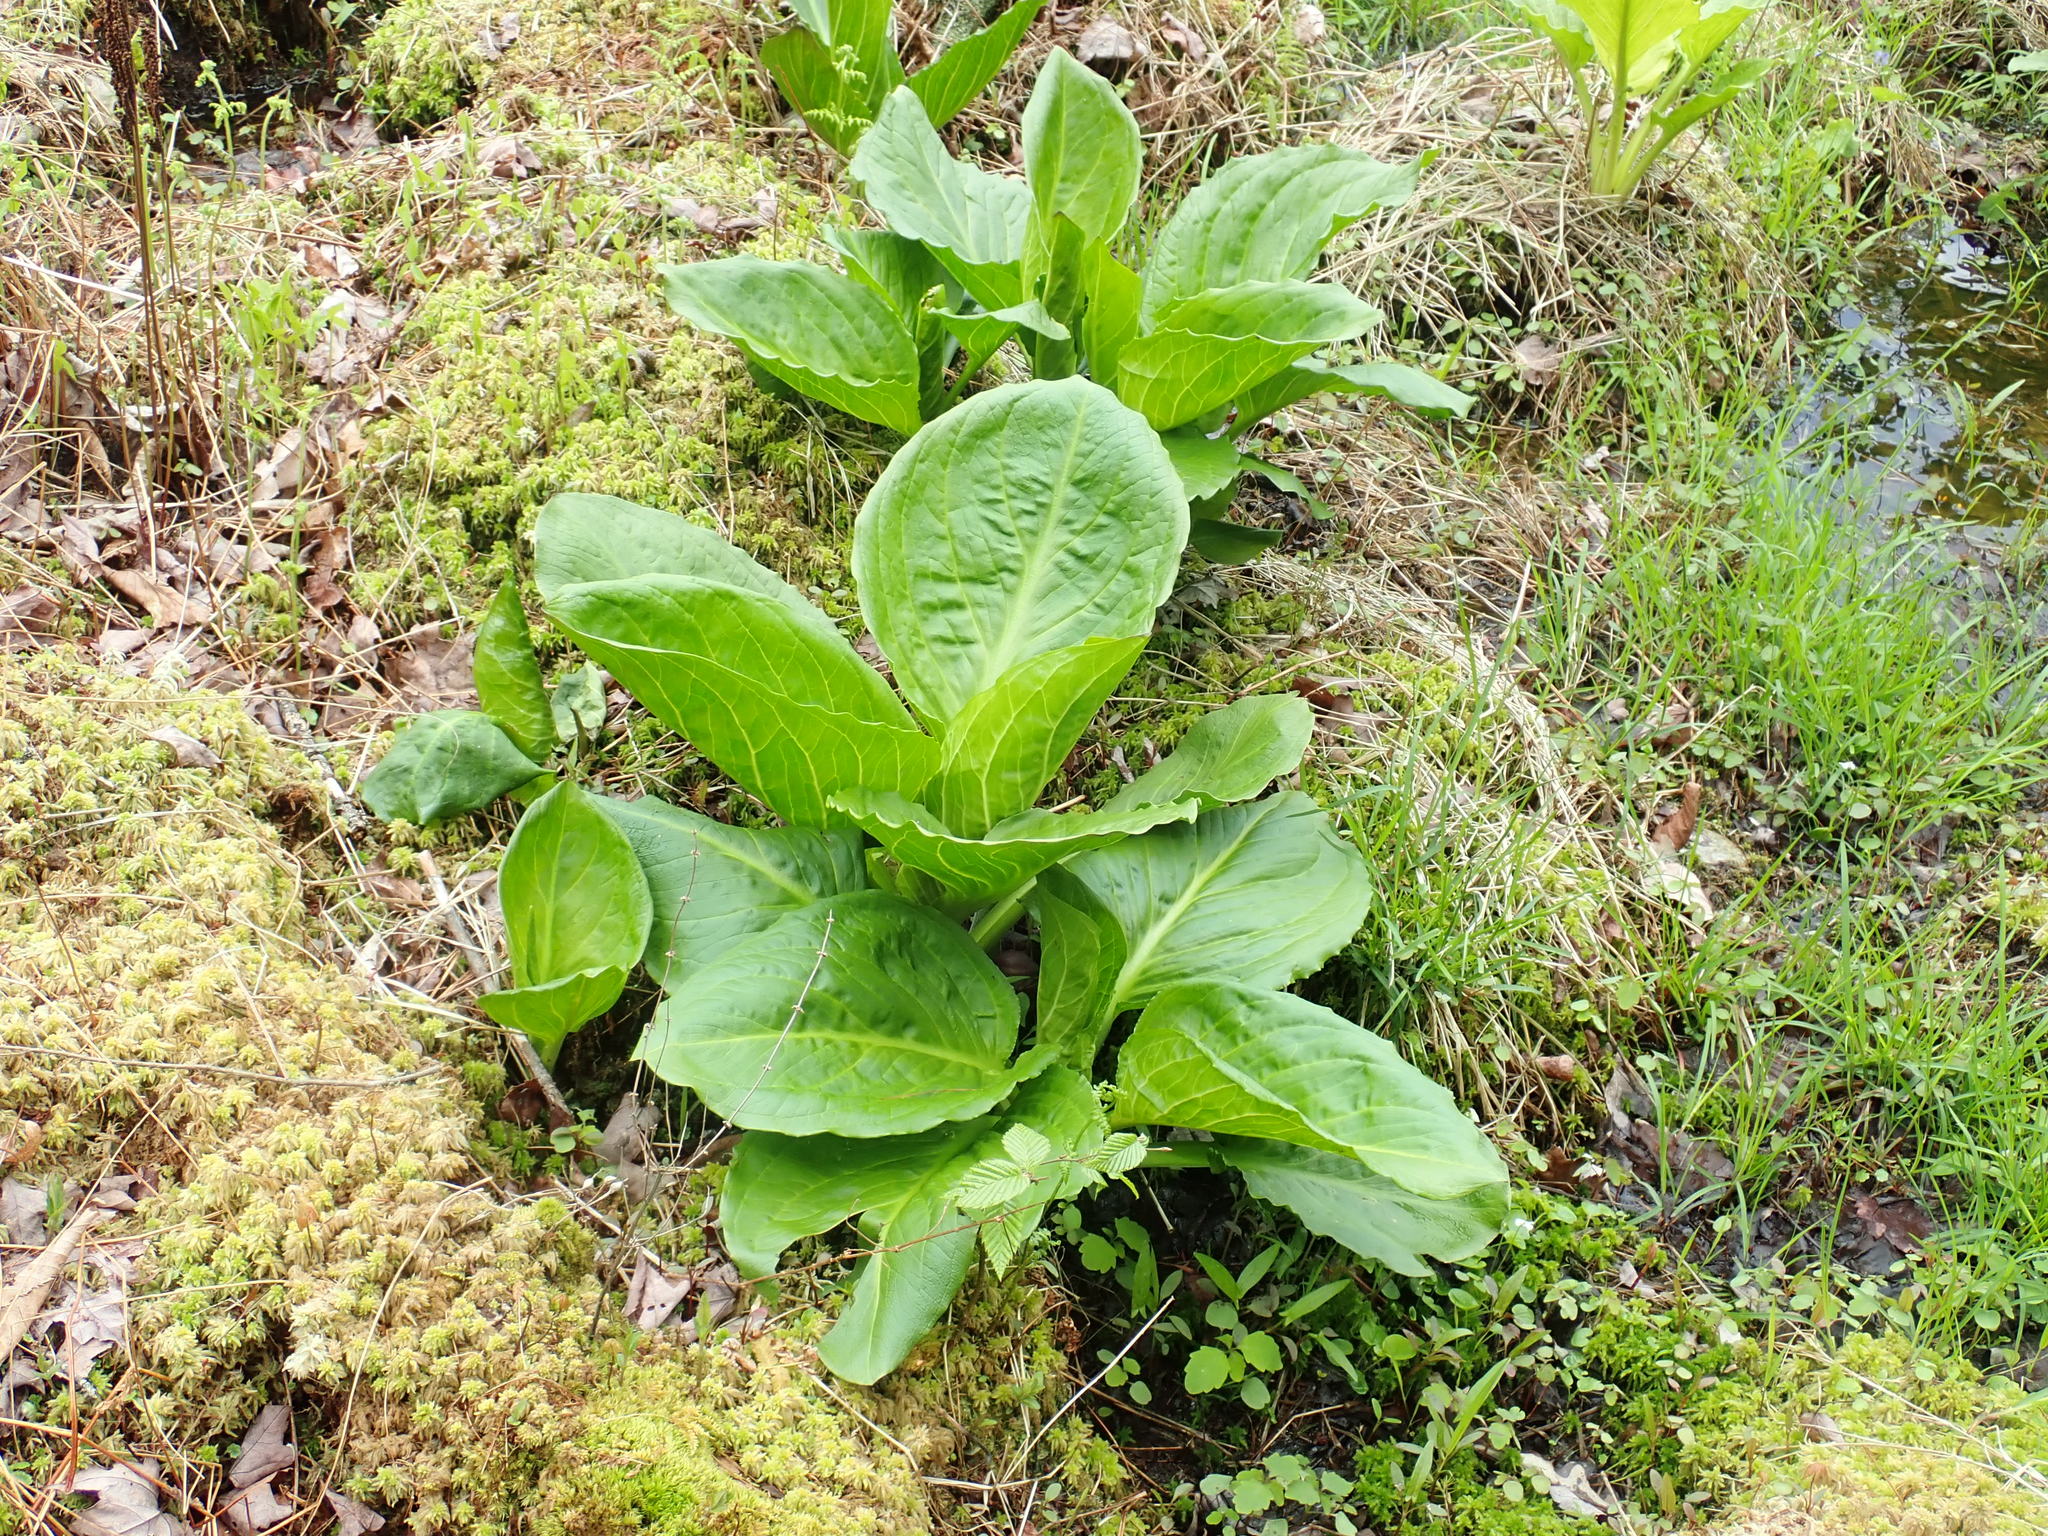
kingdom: Plantae
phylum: Tracheophyta
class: Liliopsida
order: Alismatales
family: Araceae
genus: Symplocarpus
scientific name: Symplocarpus foetidus
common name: Eastern skunk cabbage
